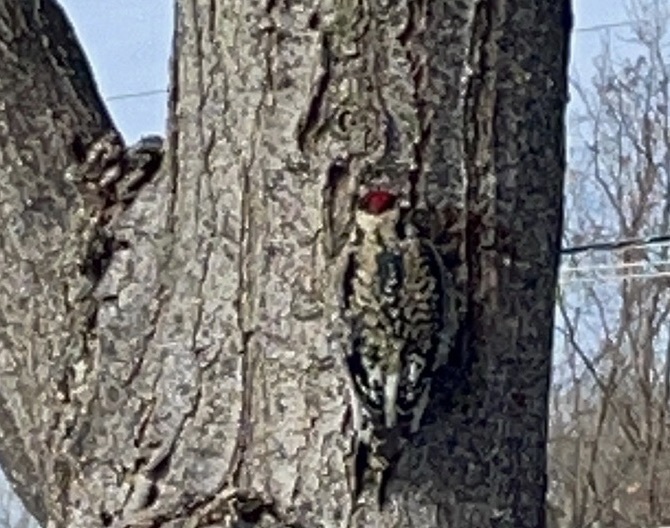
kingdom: Animalia
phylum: Chordata
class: Aves
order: Piciformes
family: Picidae
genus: Sphyrapicus
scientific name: Sphyrapicus varius
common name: Yellow-bellied sapsucker
